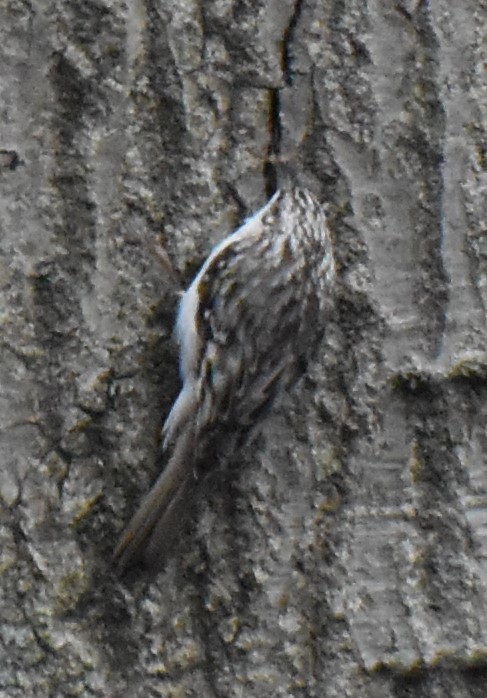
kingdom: Animalia
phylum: Chordata
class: Aves
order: Passeriformes
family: Certhiidae
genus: Certhia
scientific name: Certhia americana
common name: Brown creeper
